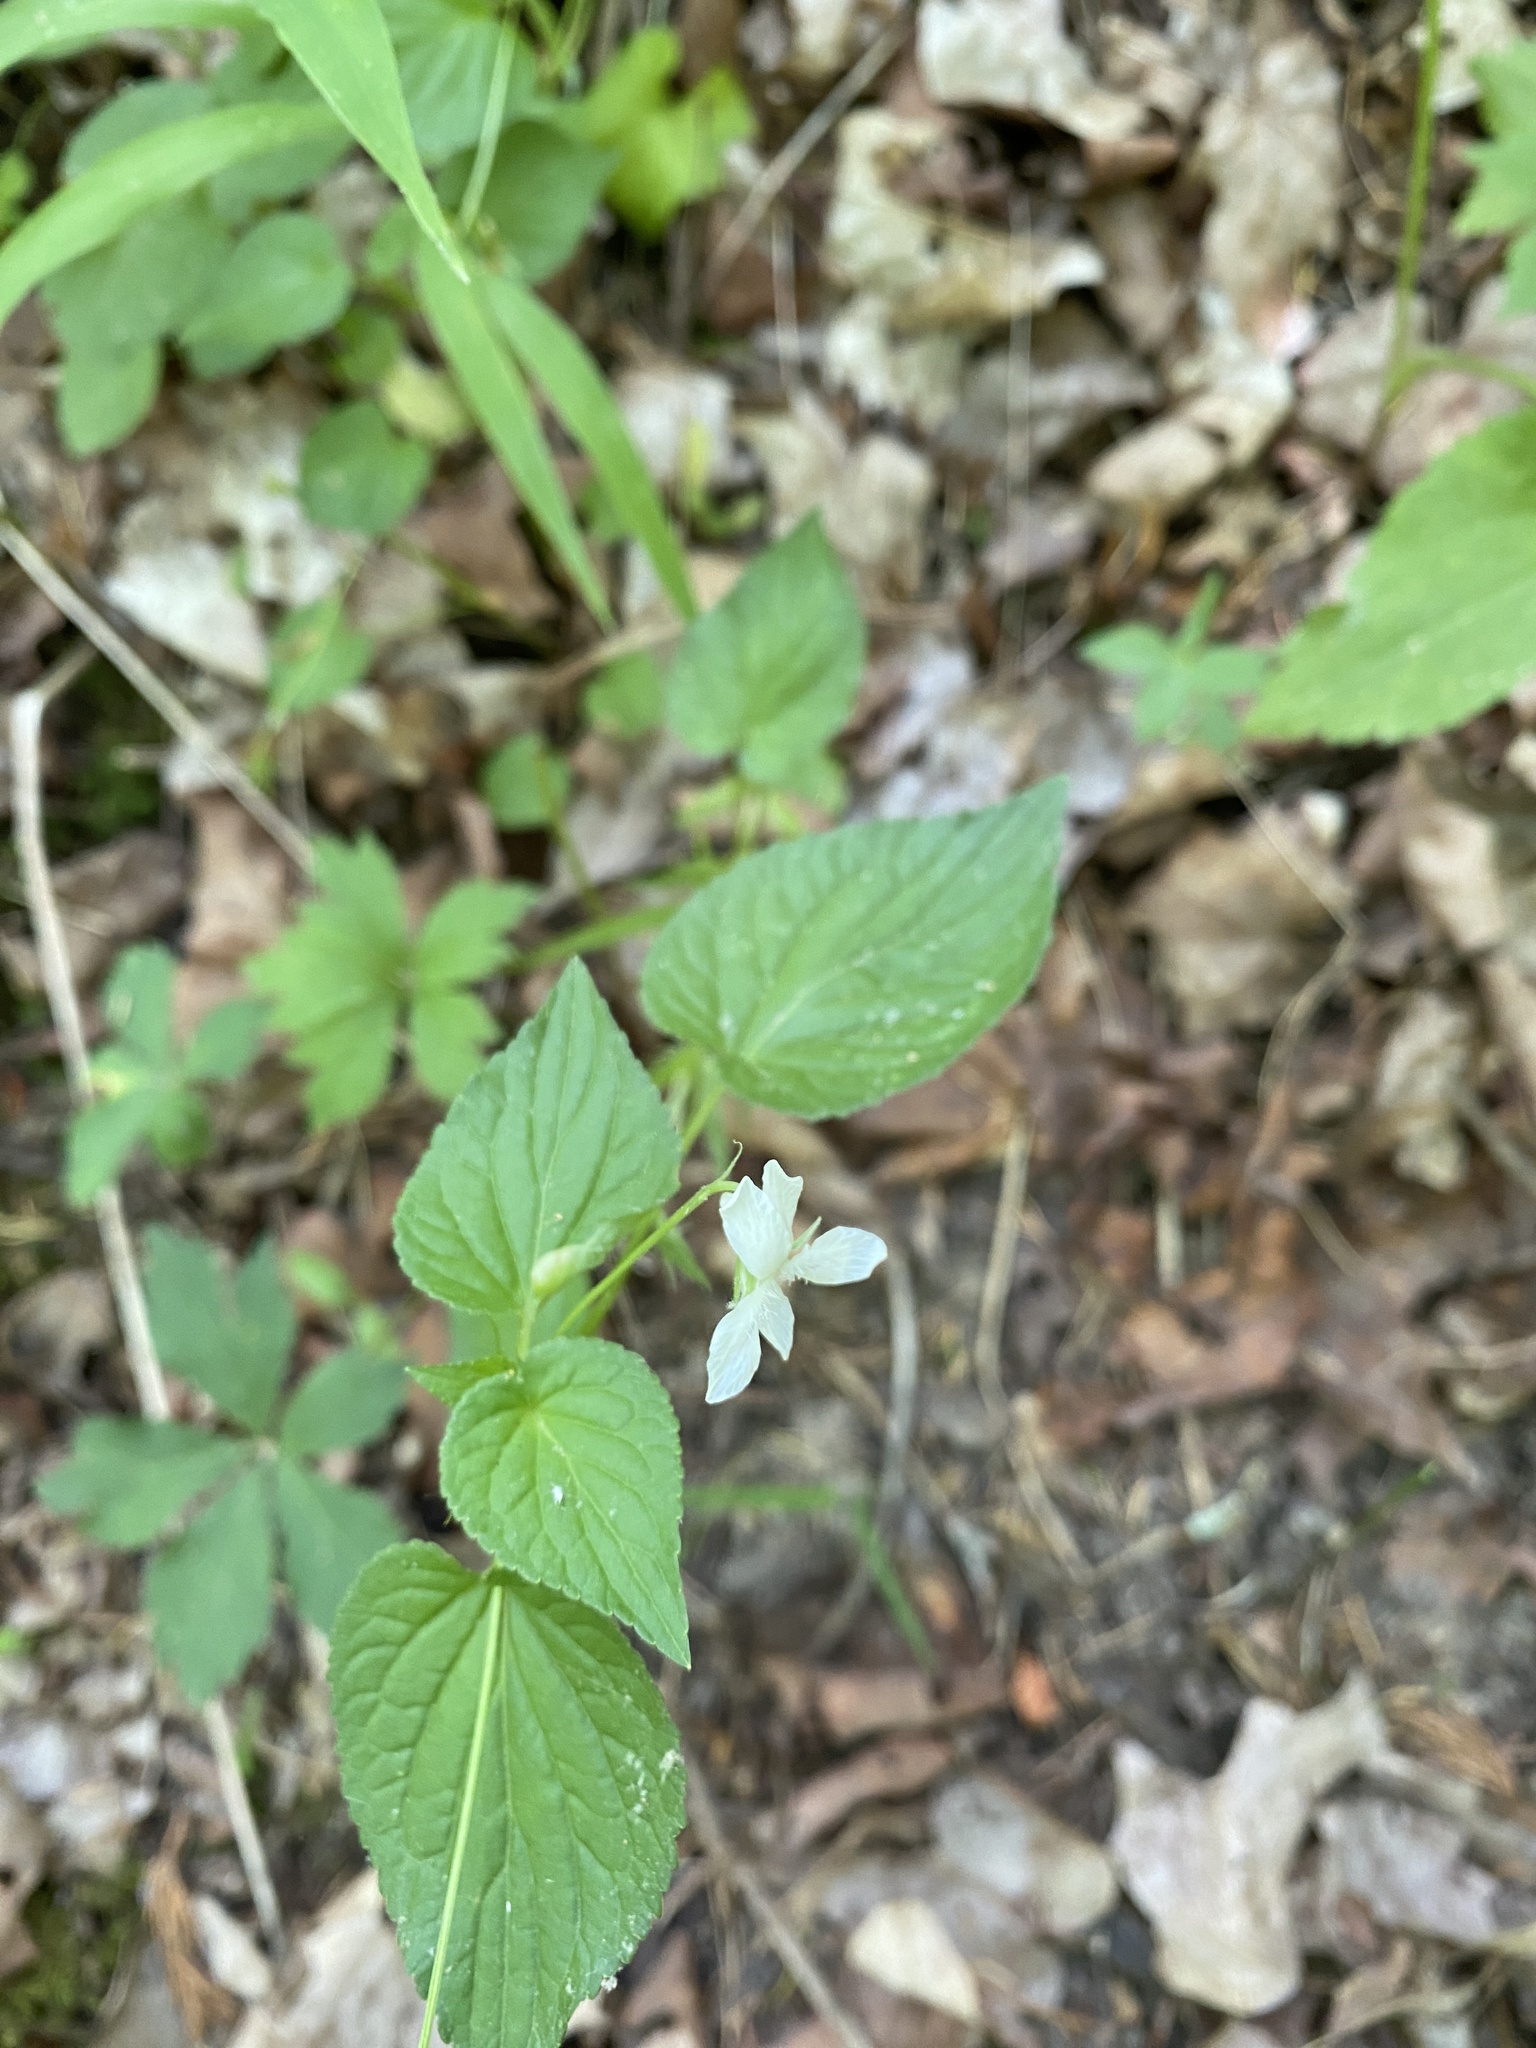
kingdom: Plantae
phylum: Tracheophyta
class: Magnoliopsida
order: Malpighiales
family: Violaceae
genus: Viola
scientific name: Viola striata
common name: Cream violet
